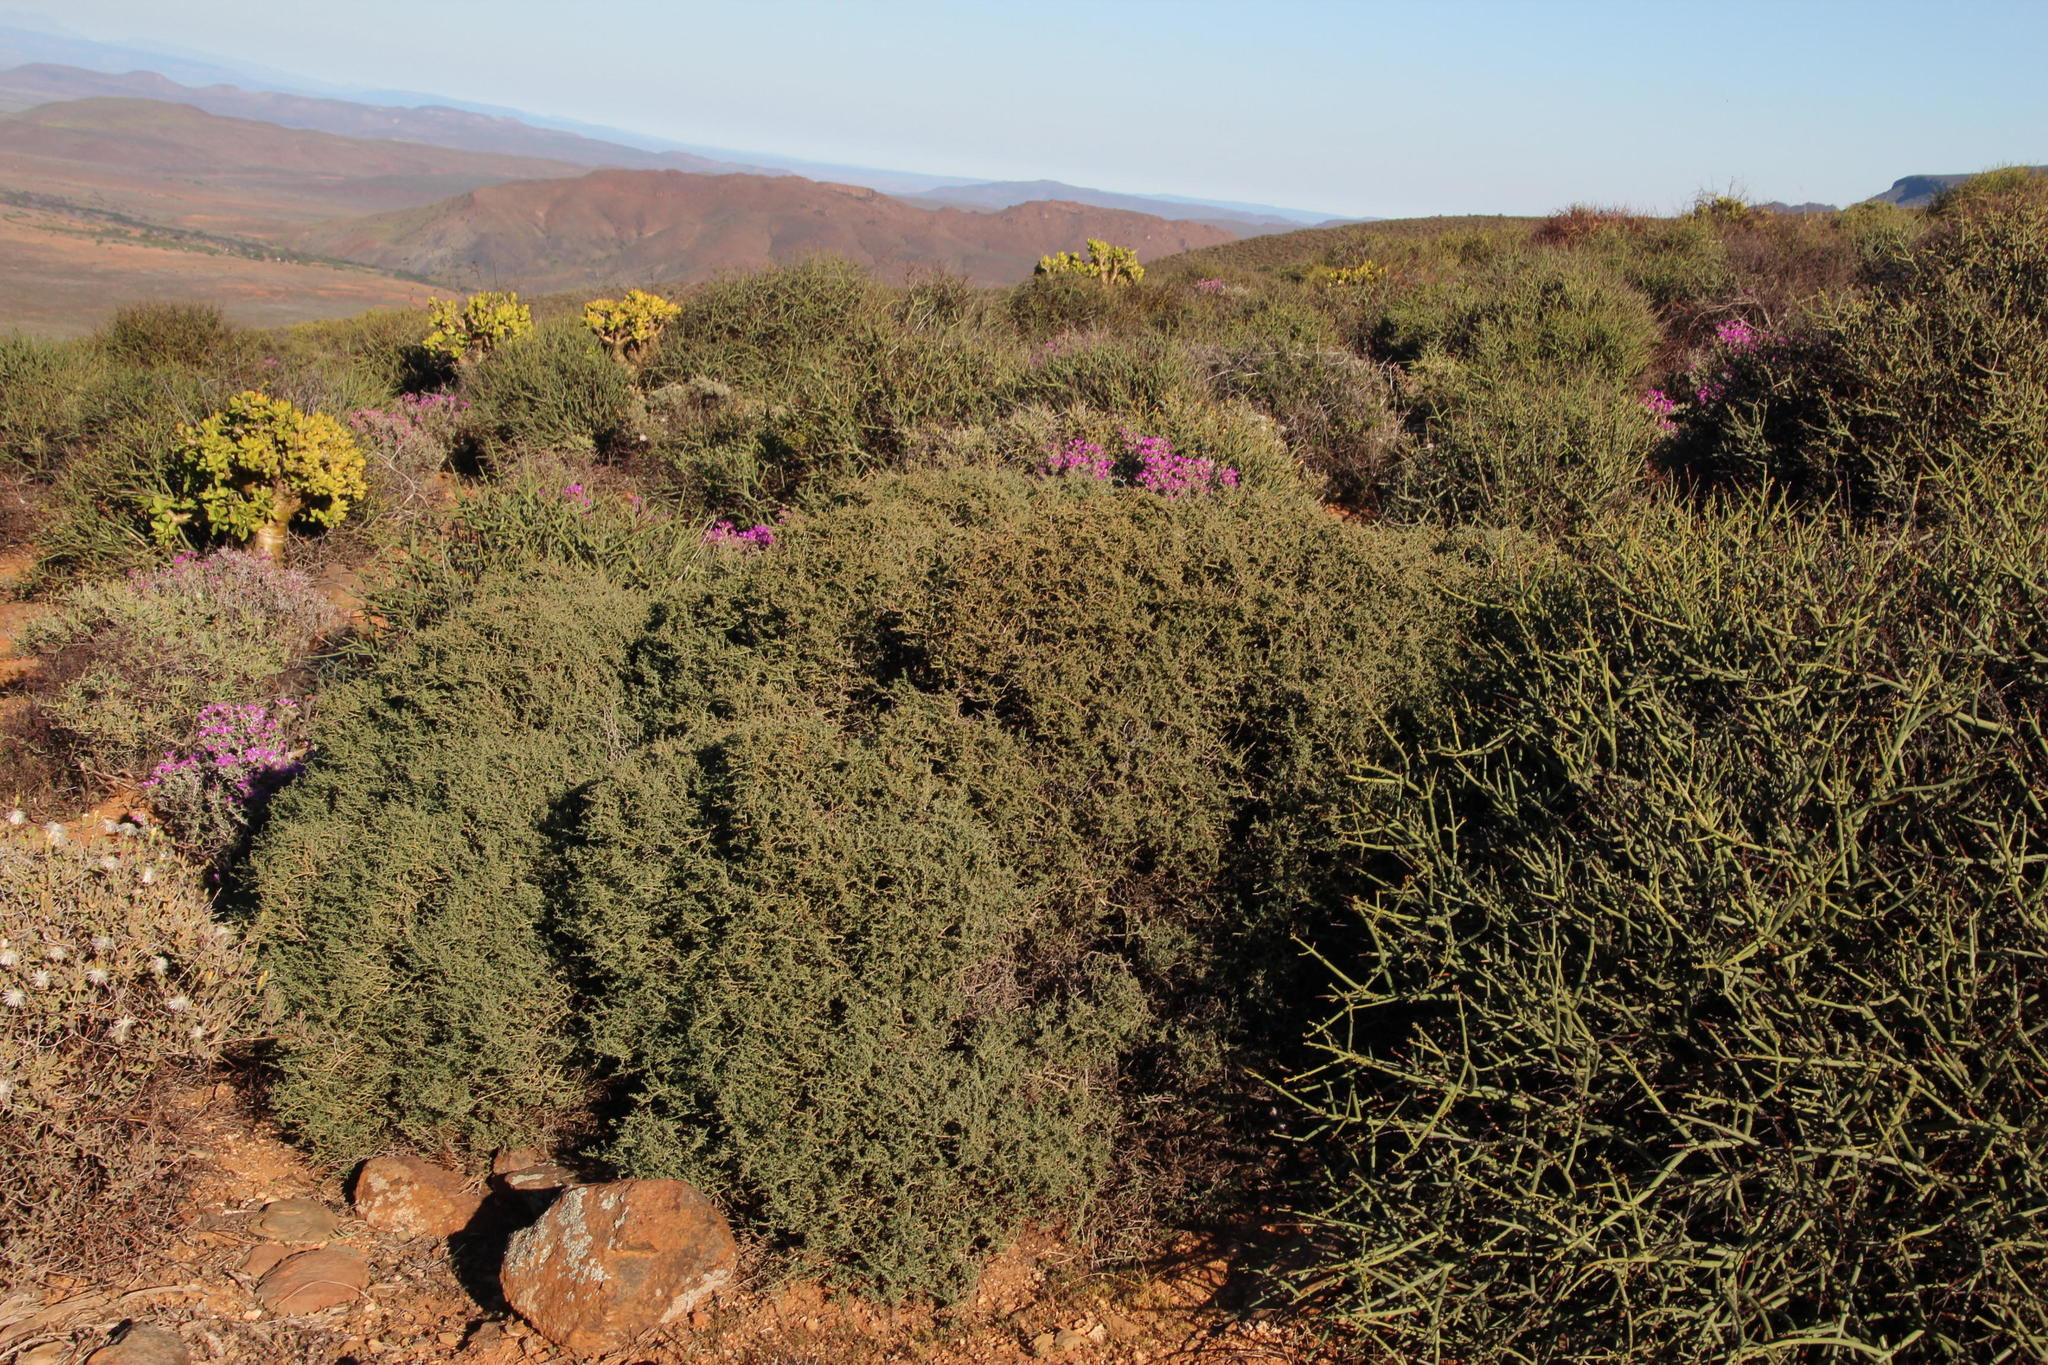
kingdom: Plantae
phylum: Tracheophyta
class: Magnoliopsida
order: Zygophyllales
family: Zygophyllaceae
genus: Tetraena
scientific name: Tetraena retrofracta
